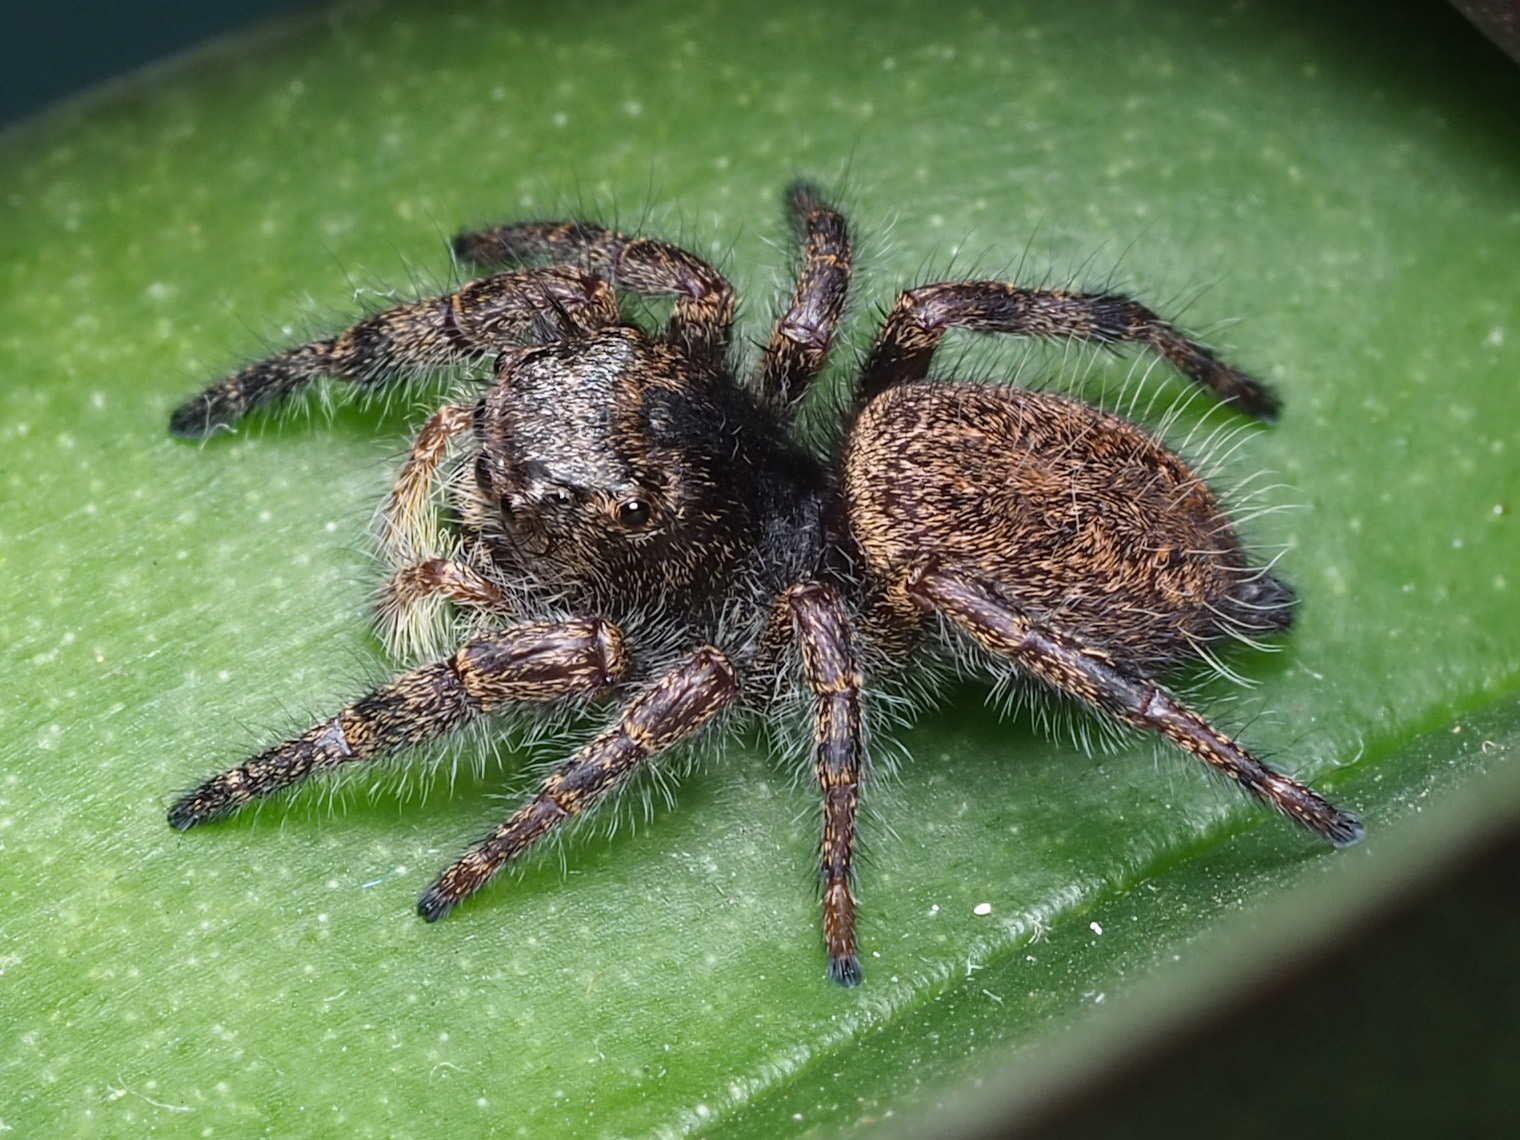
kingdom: Animalia
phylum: Arthropoda
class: Arachnida
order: Araneae
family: Salticidae
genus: Phidippus
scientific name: Phidippus princeps
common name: Grayish jumping spider
